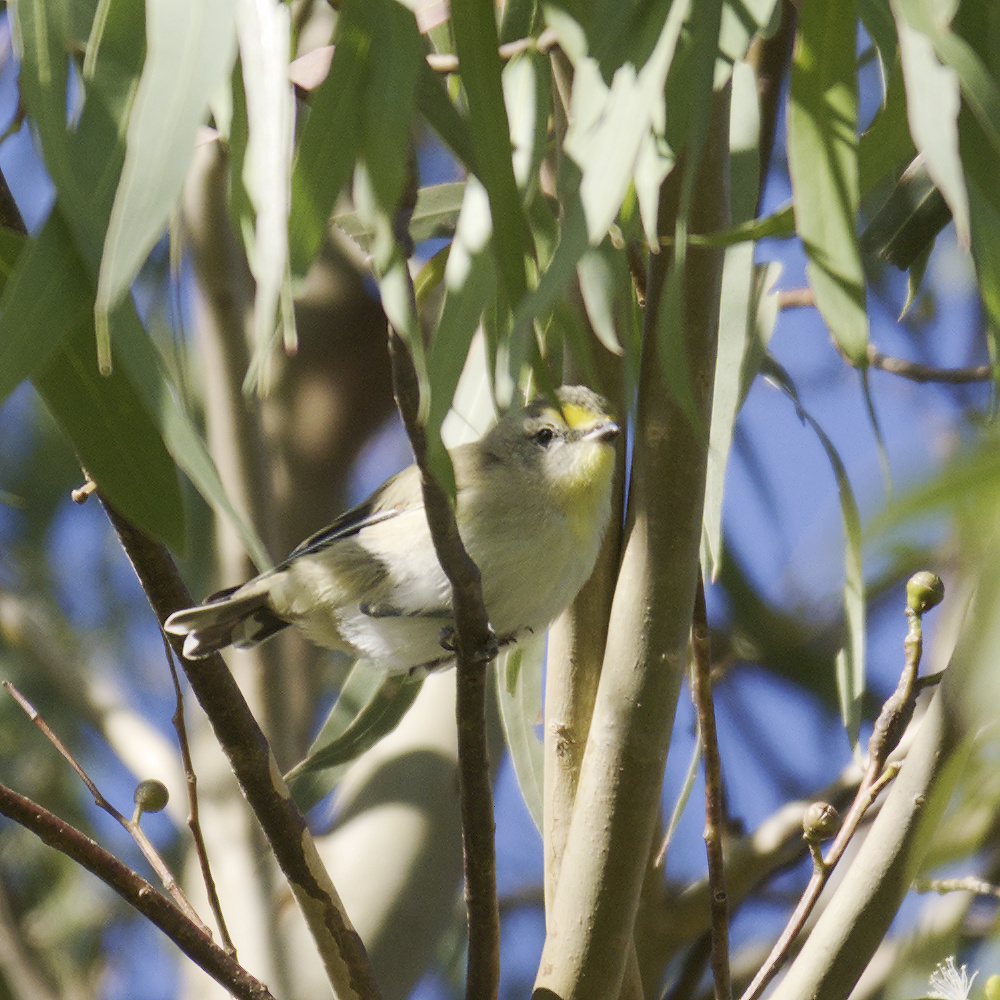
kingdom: Animalia
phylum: Chordata
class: Aves
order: Passeriformes
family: Pardalotidae
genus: Pardalotus
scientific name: Pardalotus striatus
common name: Striated pardalote
